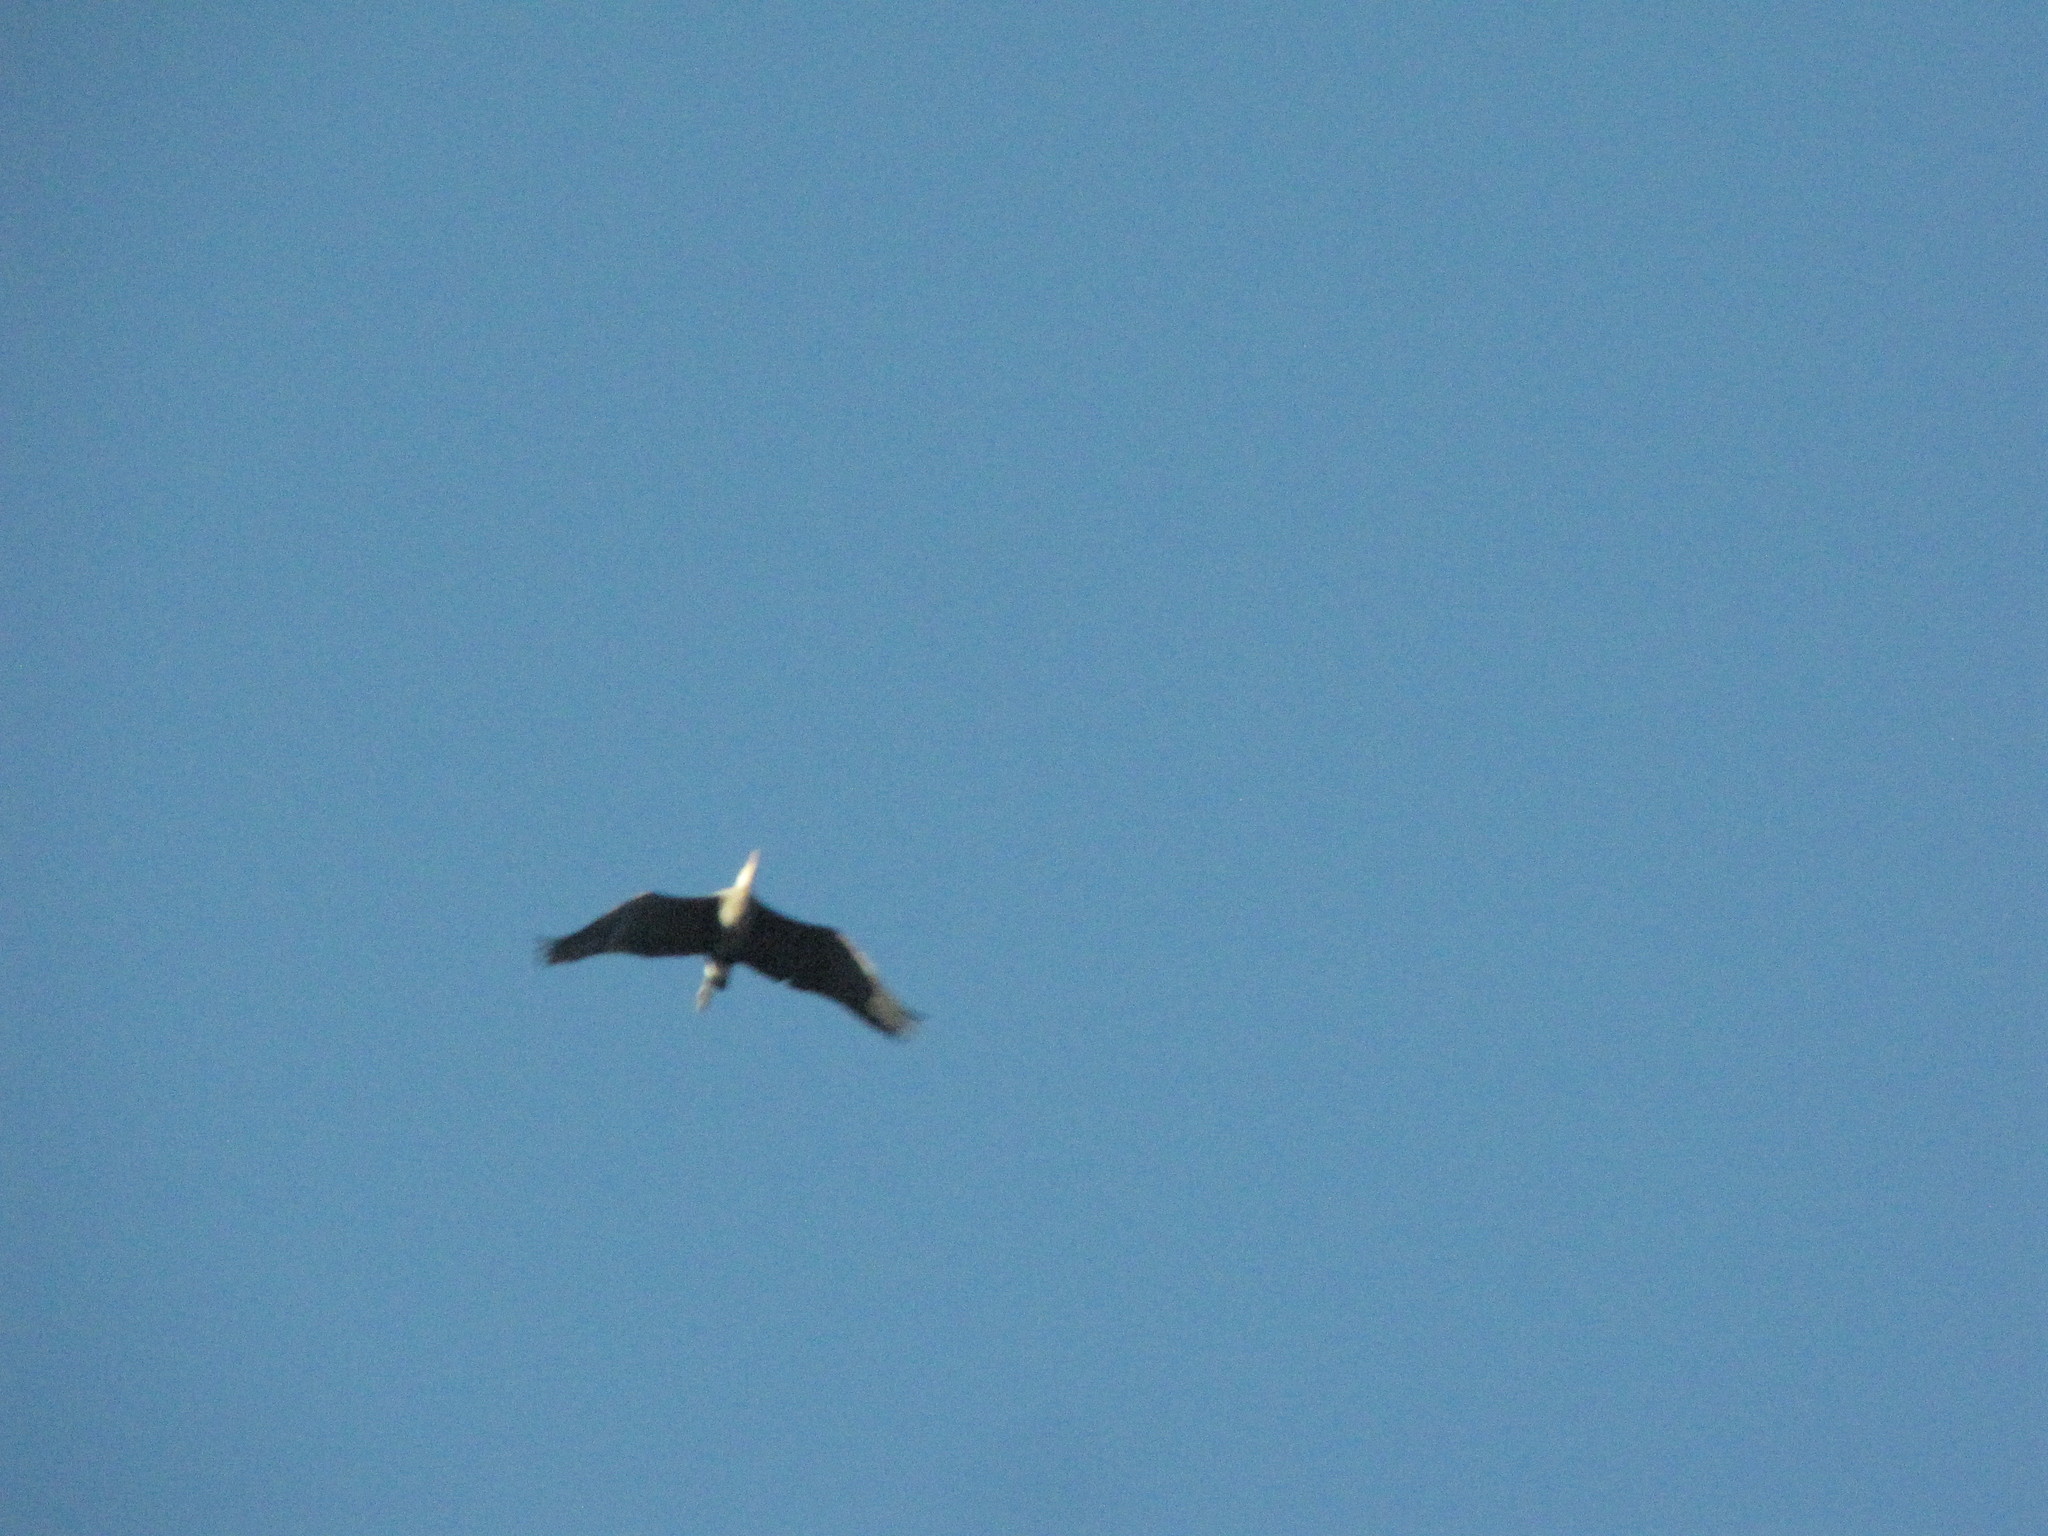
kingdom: Animalia
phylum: Chordata
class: Aves
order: Pelecaniformes
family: Ardeidae
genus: Ardea
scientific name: Ardea herodias
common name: Great blue heron
